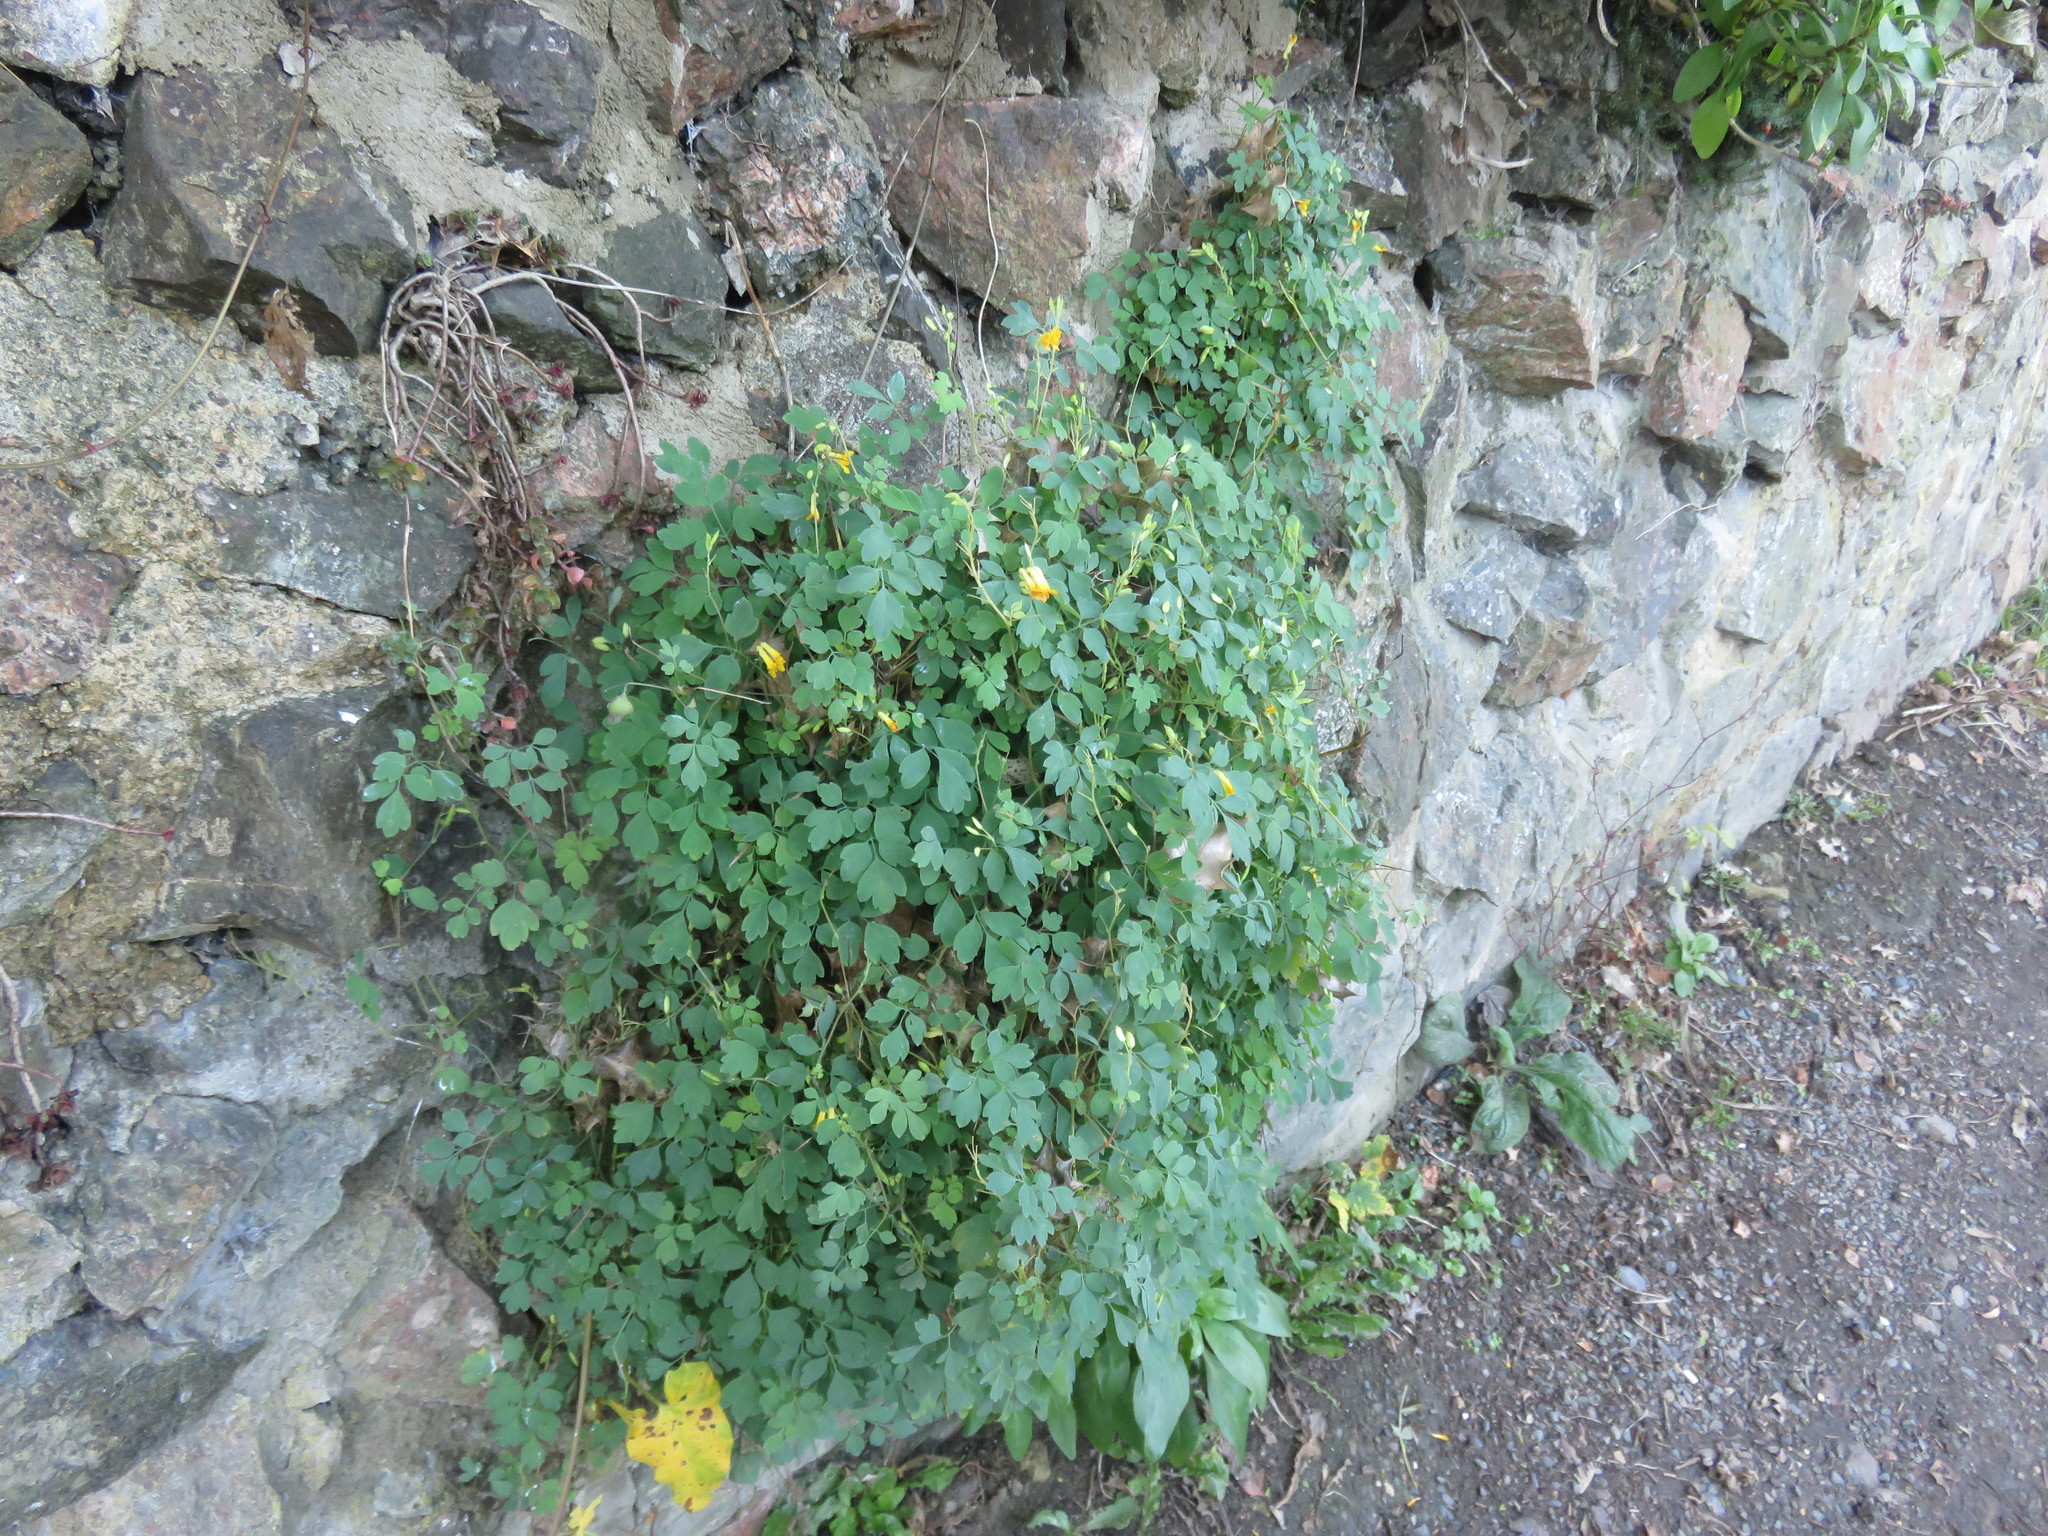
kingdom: Plantae
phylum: Tracheophyta
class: Magnoliopsida
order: Ranunculales
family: Papaveraceae
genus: Pseudofumaria
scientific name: Pseudofumaria lutea
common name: Yellow corydalis
